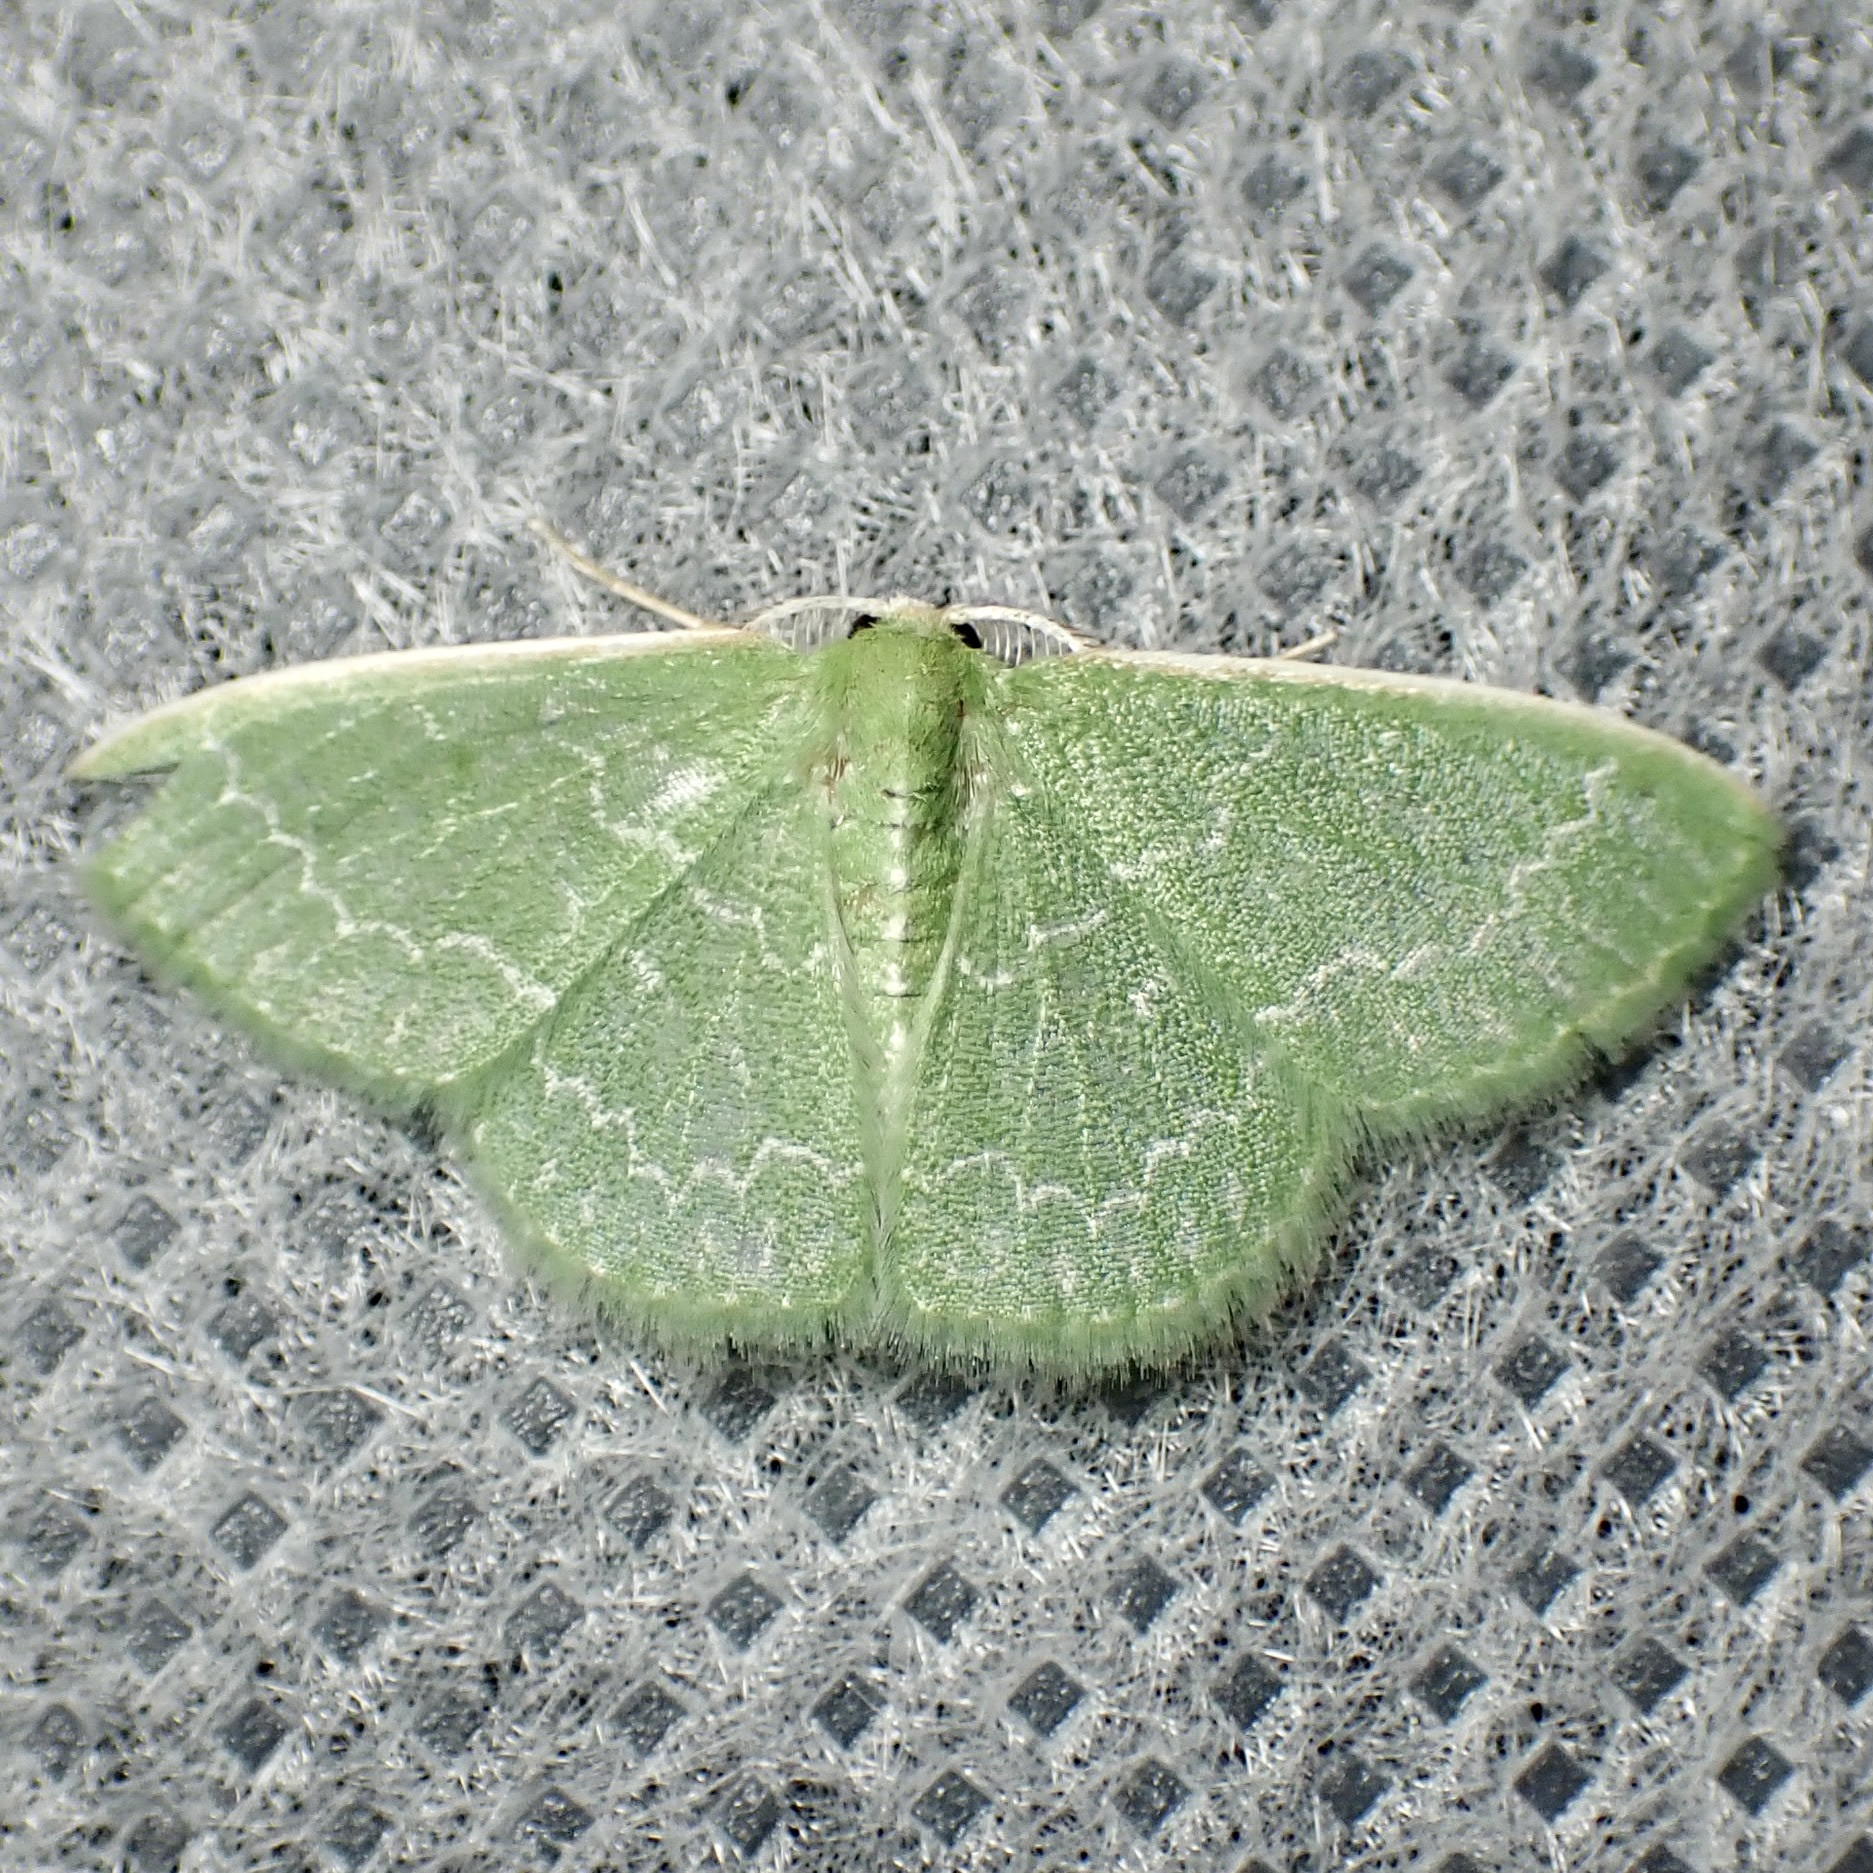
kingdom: Animalia
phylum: Arthropoda
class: Insecta
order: Lepidoptera
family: Geometridae
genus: Synchlora
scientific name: Synchlora frondaria
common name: Southern emerald
